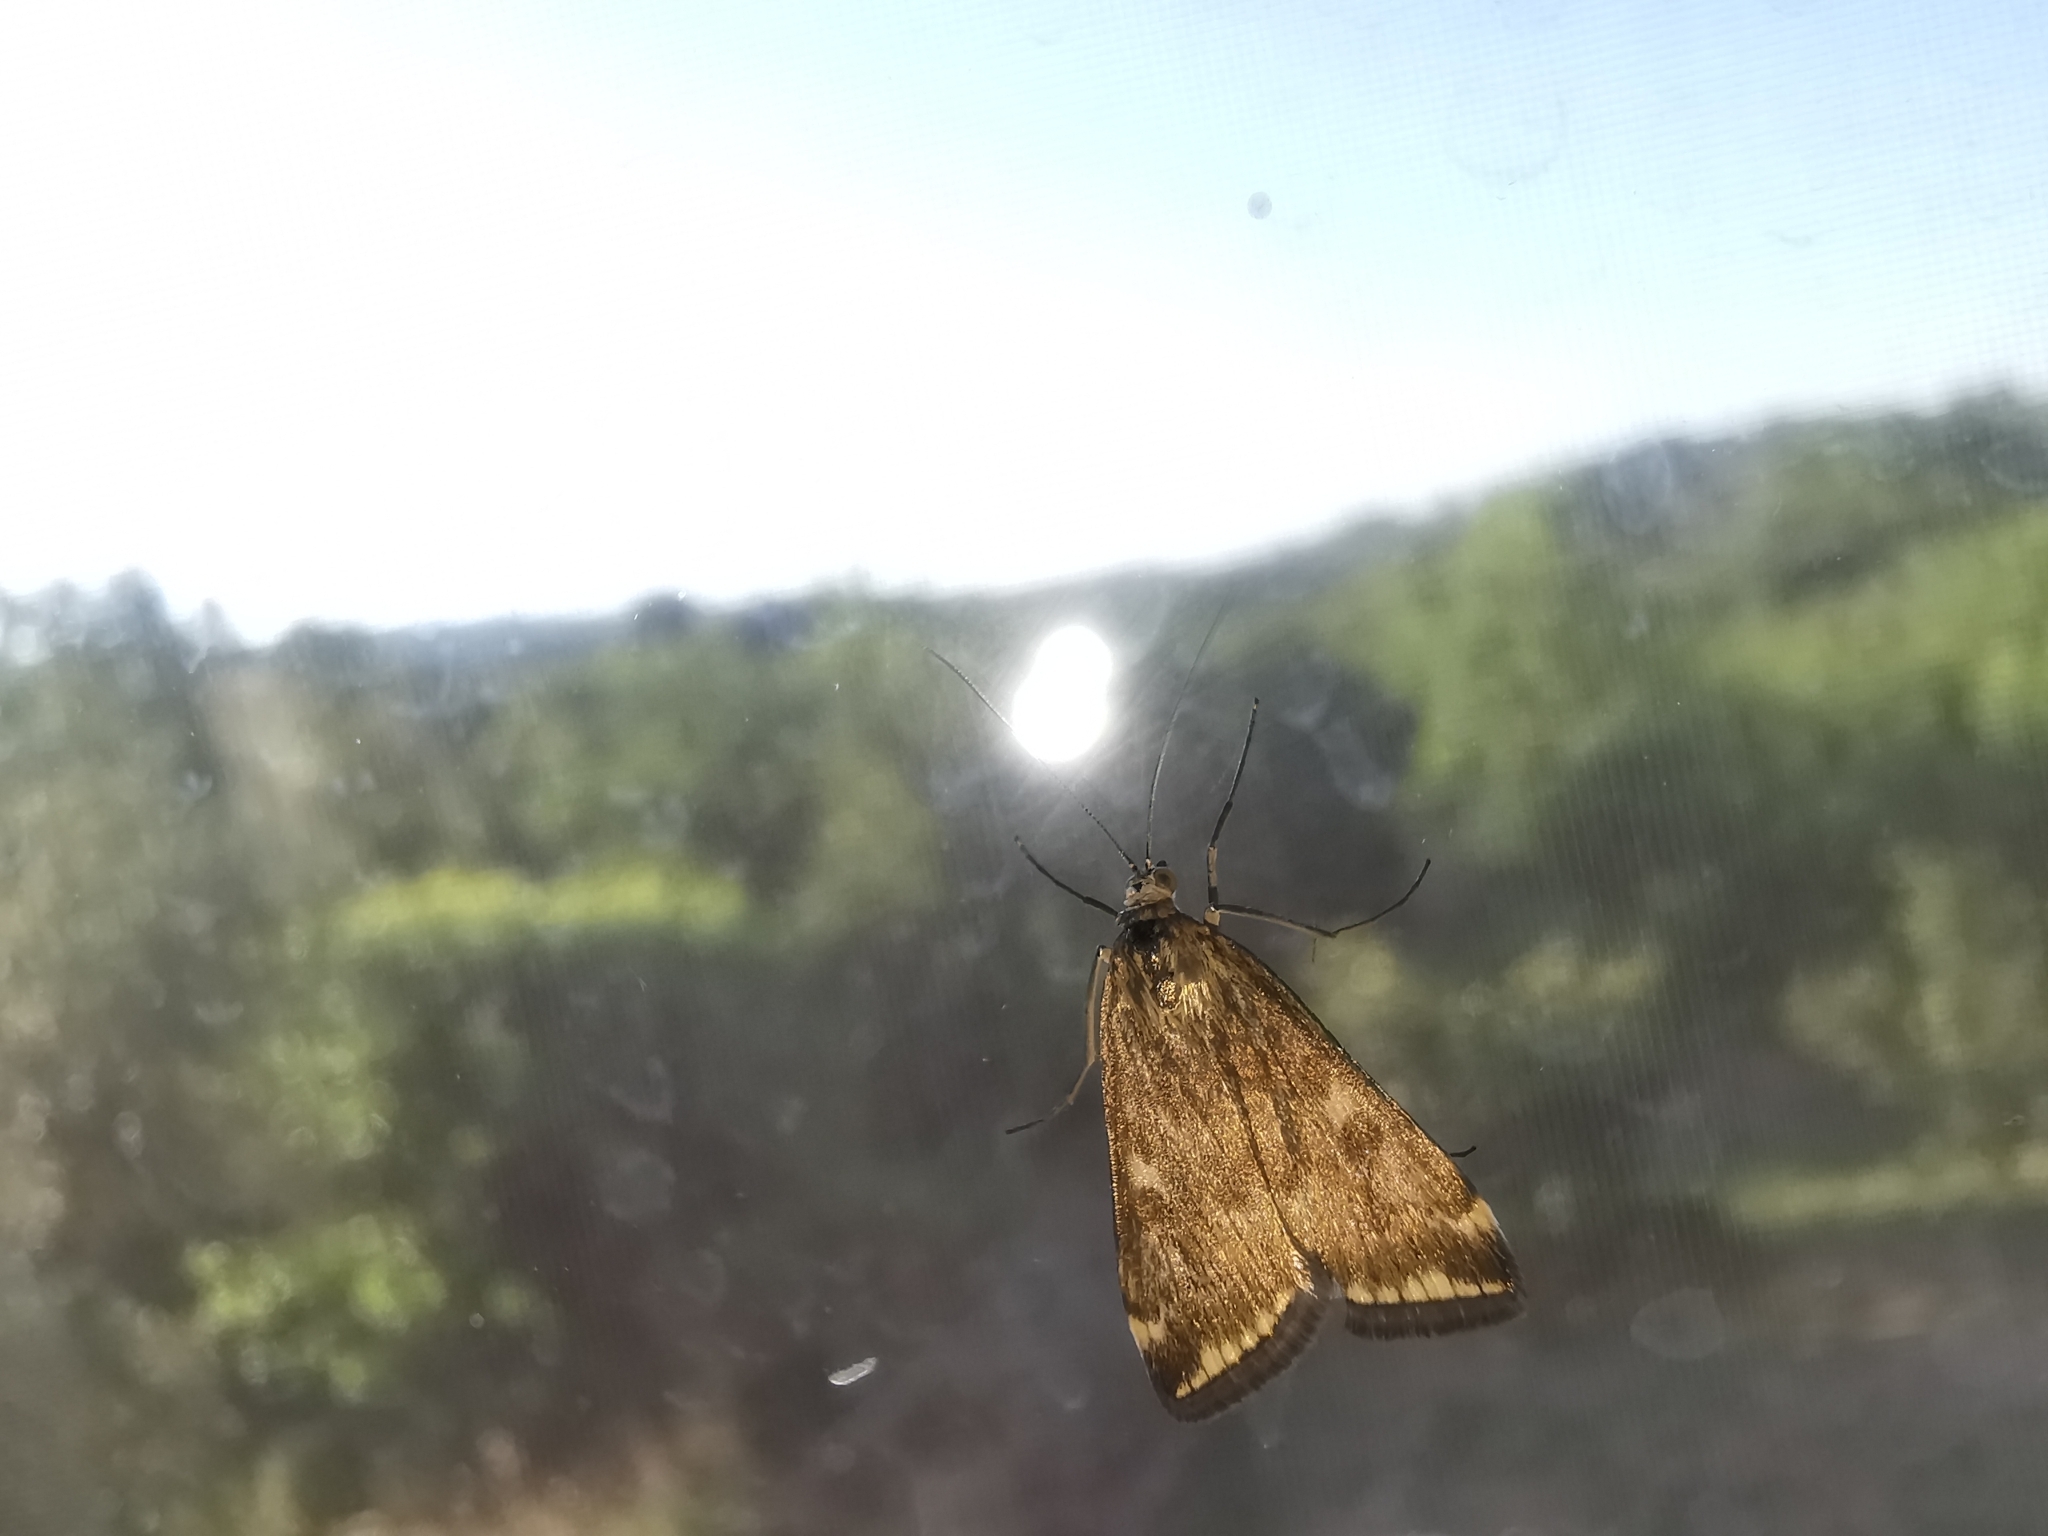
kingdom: Animalia
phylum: Arthropoda
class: Insecta
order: Lepidoptera
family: Crambidae
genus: Loxostege
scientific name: Loxostege sticticalis
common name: Crambid moth
